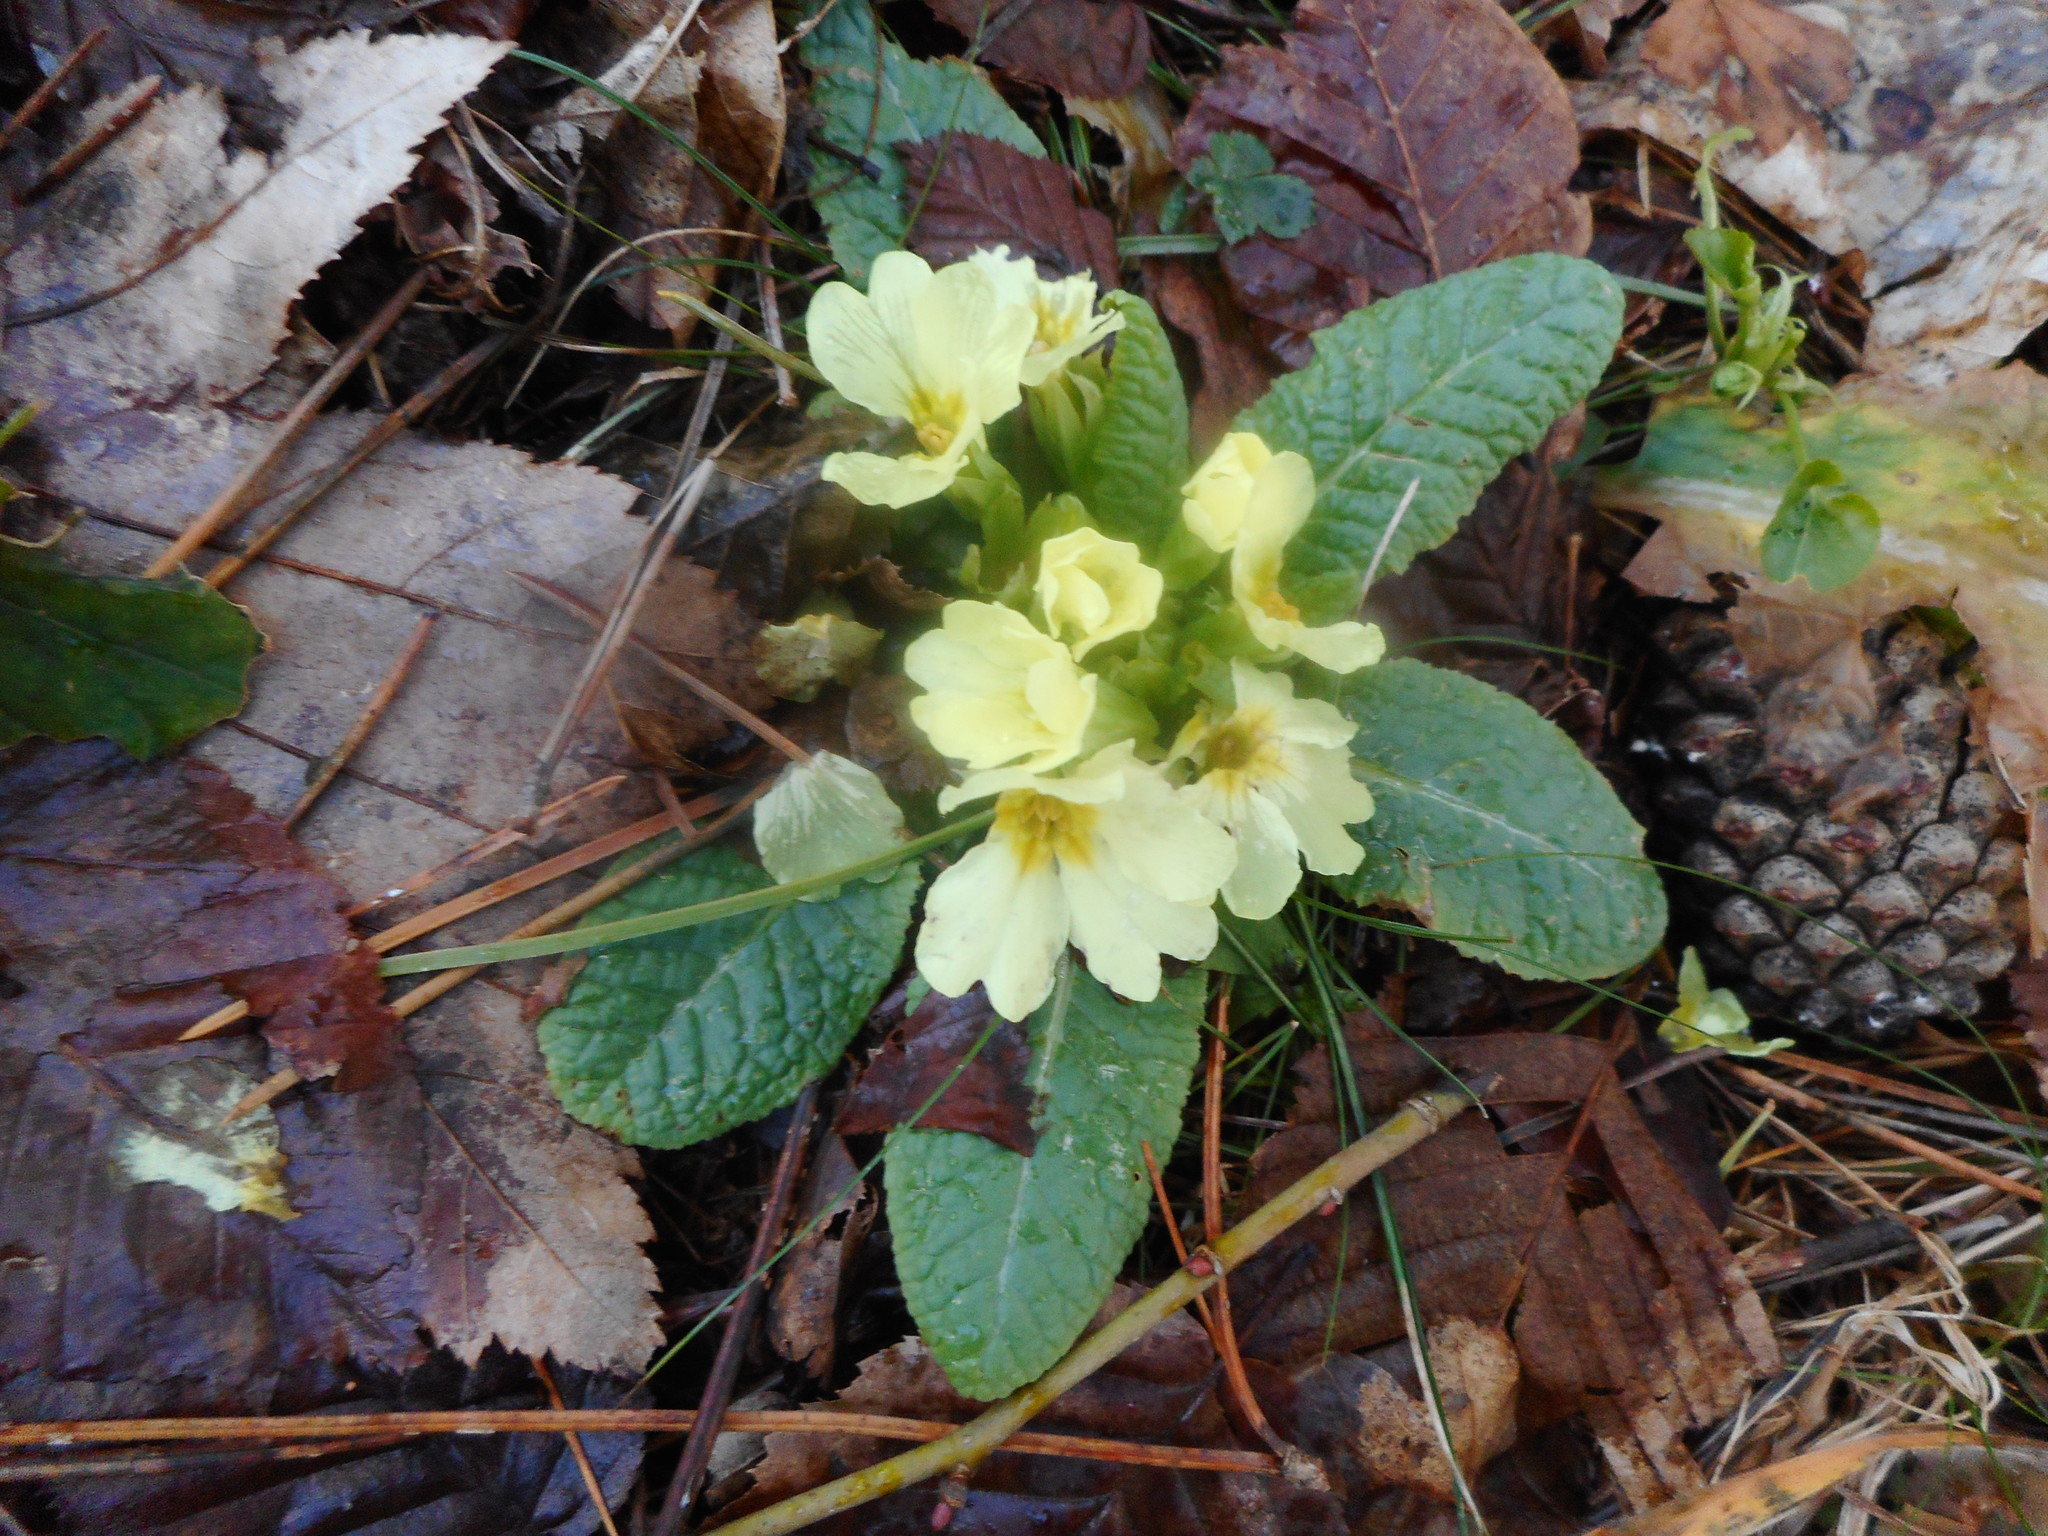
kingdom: Plantae
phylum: Tracheophyta
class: Magnoliopsida
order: Ericales
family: Primulaceae
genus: Primula
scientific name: Primula vulgaris
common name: Primrose
